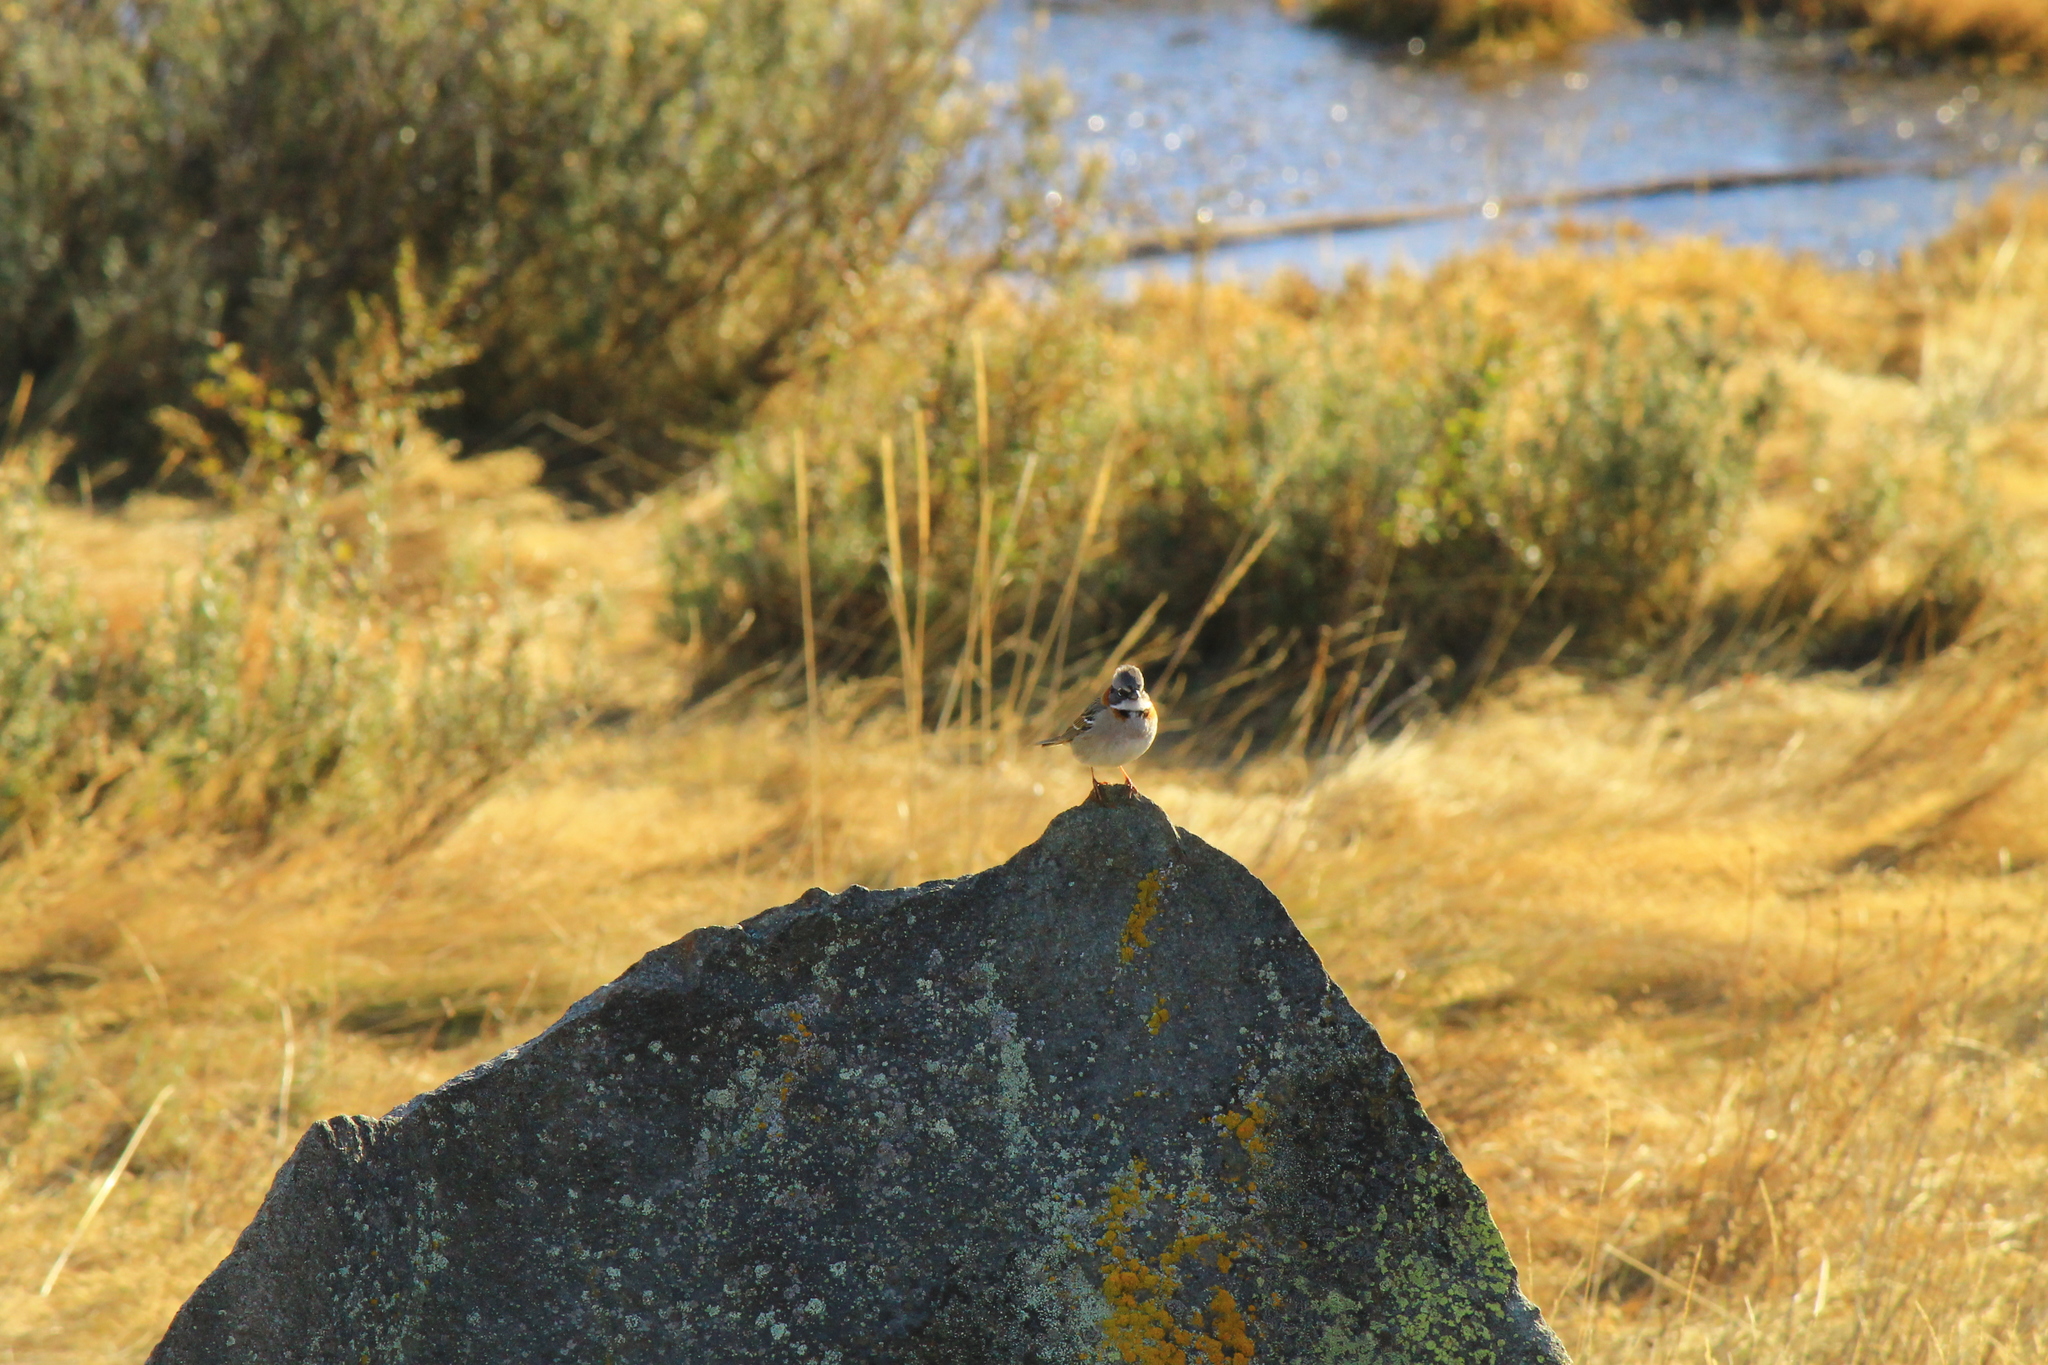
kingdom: Animalia
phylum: Chordata
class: Aves
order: Passeriformes
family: Passerellidae
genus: Zonotrichia
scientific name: Zonotrichia capensis
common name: Rufous-collared sparrow
